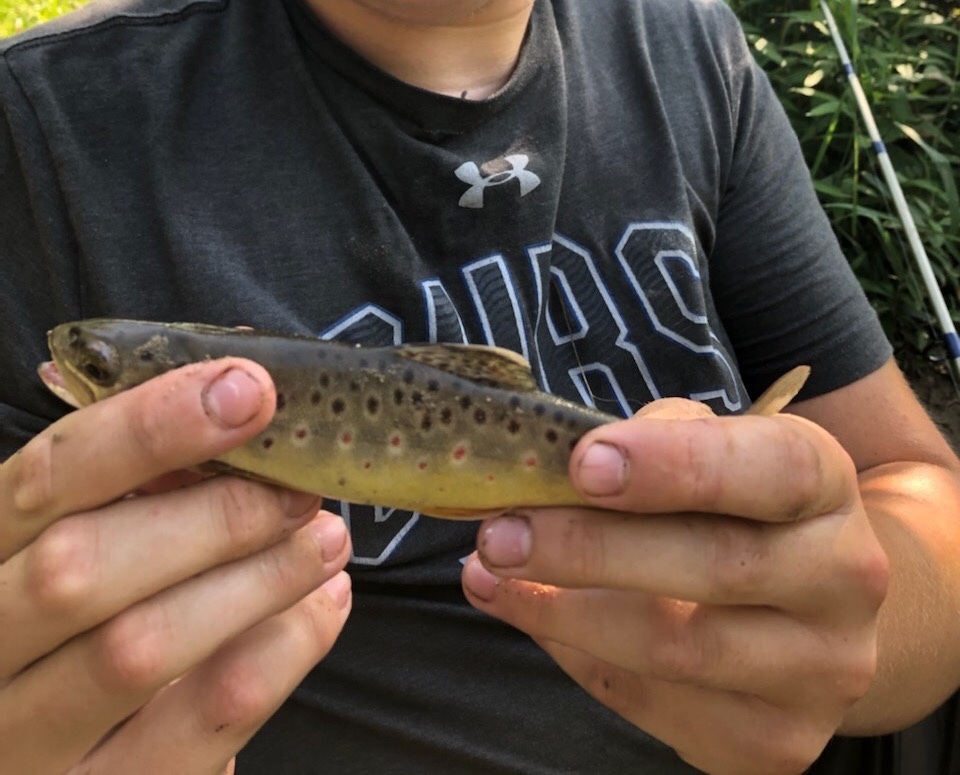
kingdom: Animalia
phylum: Chordata
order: Salmoniformes
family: Salmonidae
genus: Salmo
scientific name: Salmo trutta
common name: Brown trout
